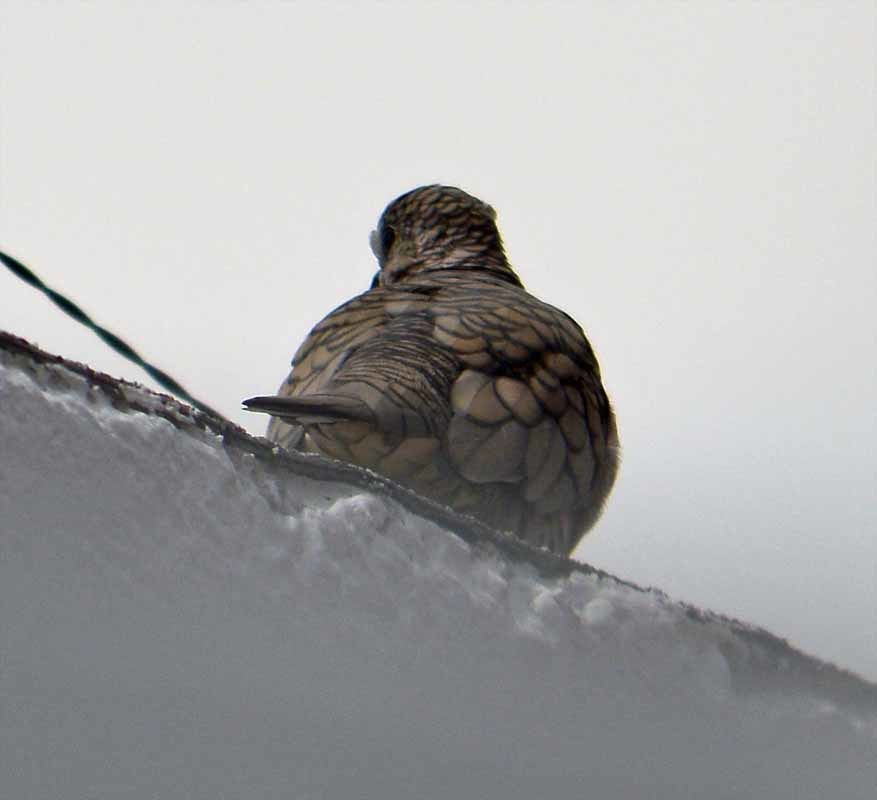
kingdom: Animalia
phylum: Chordata
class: Aves
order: Columbiformes
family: Columbidae
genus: Columbina
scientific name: Columbina inca
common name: Inca dove
